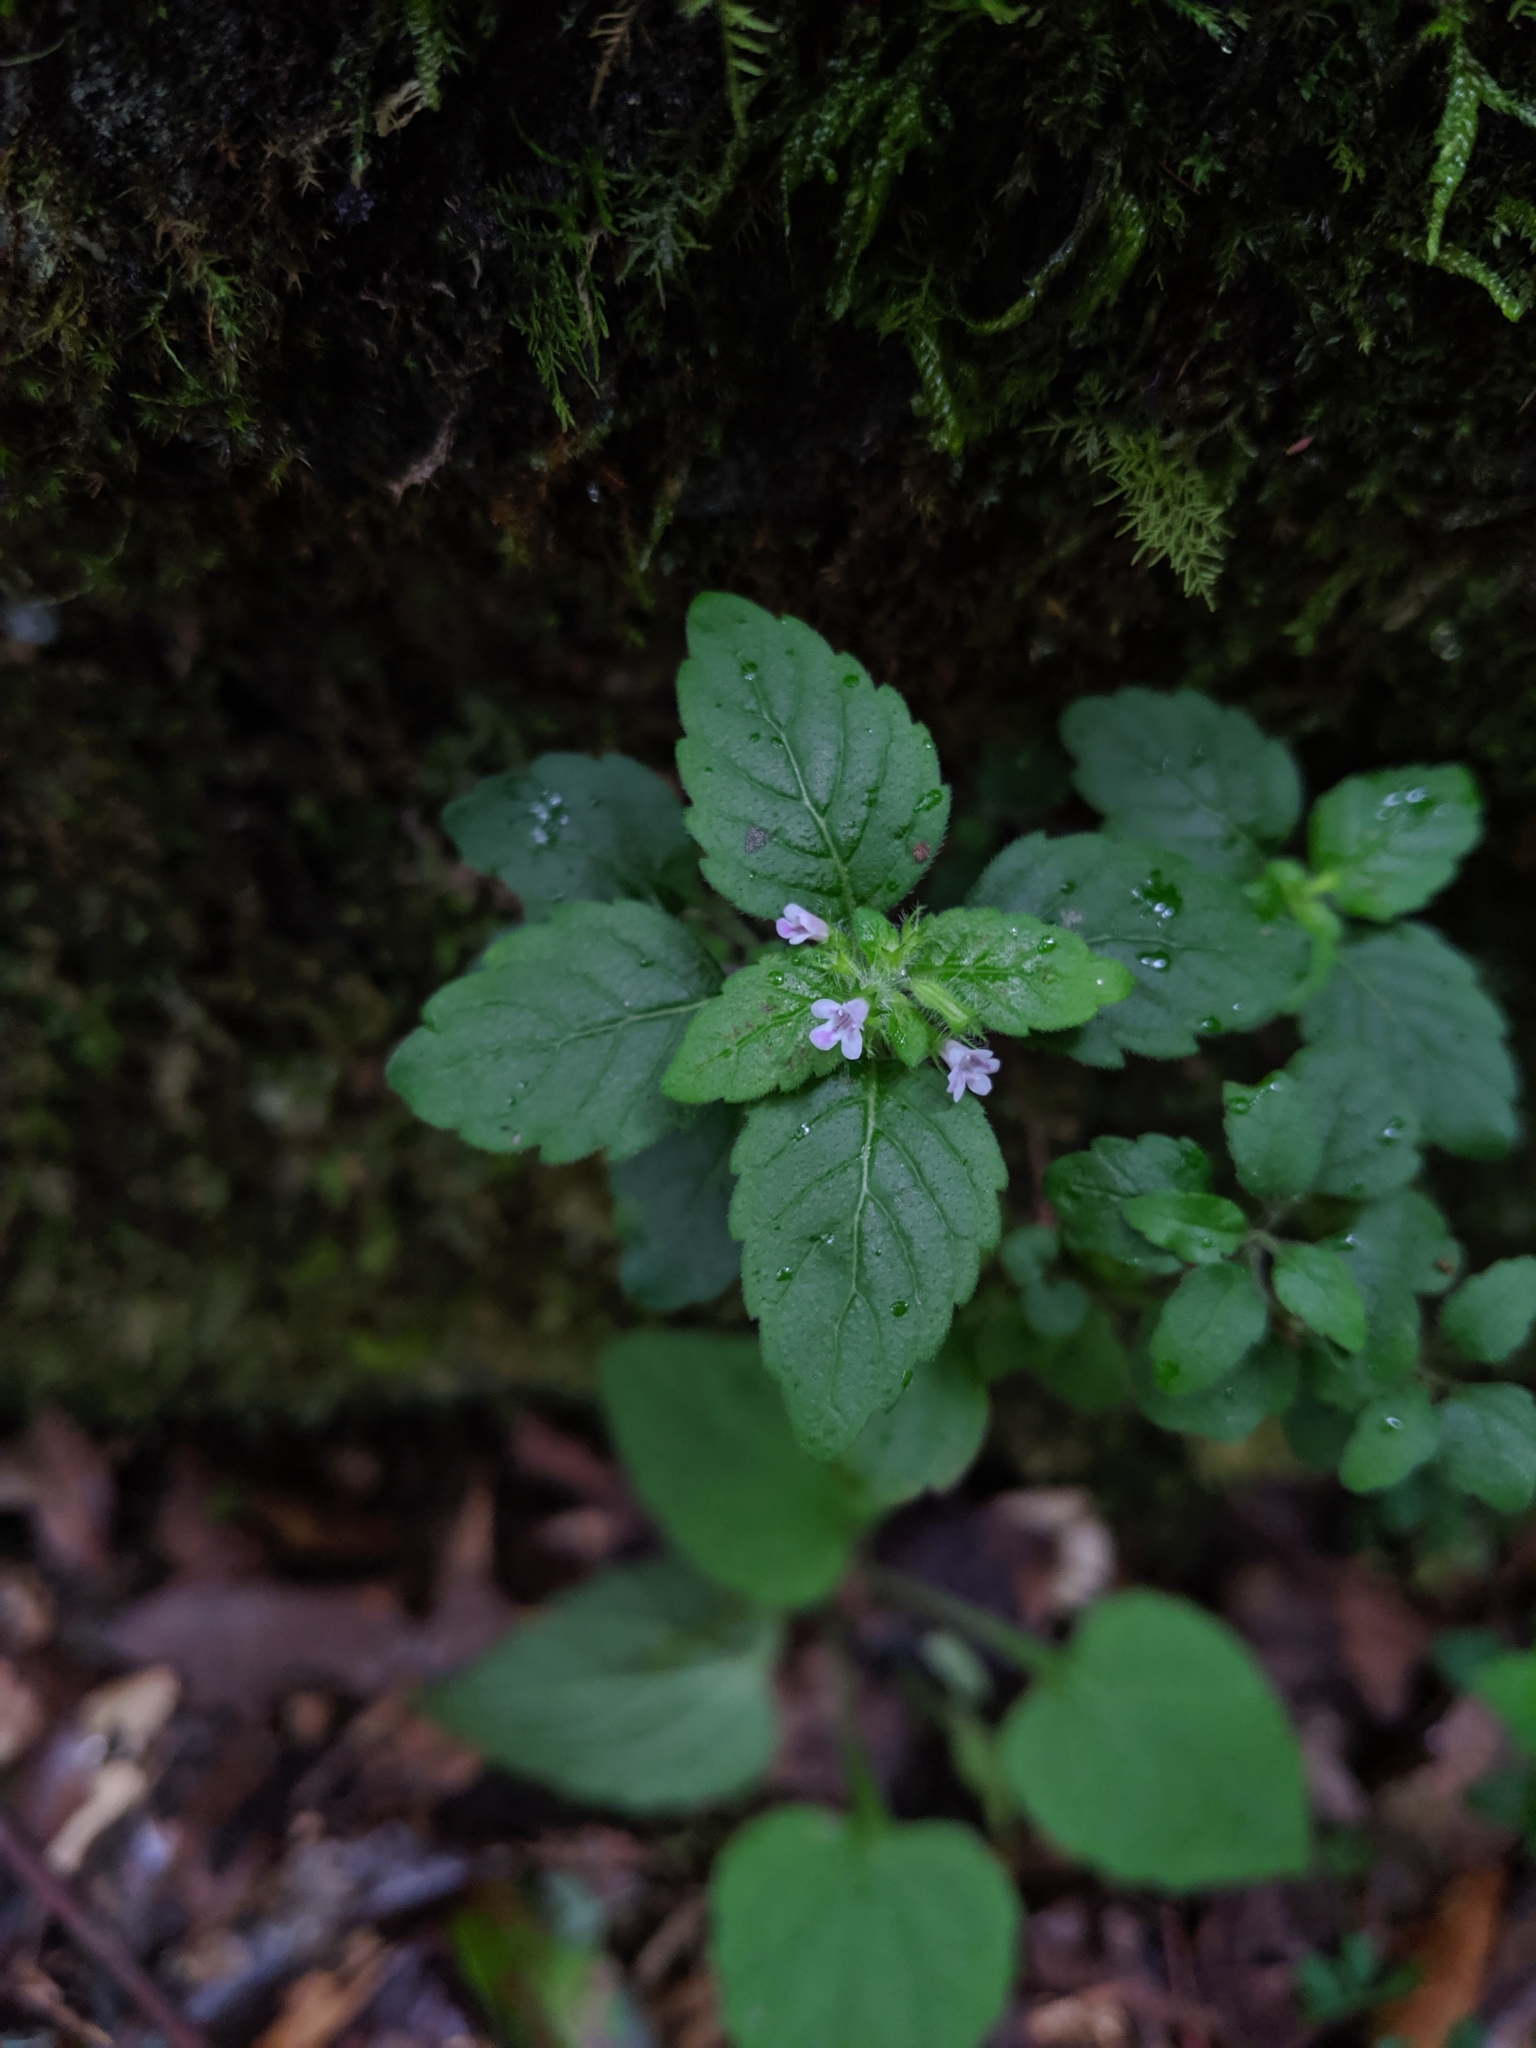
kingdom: Plantae
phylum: Tracheophyta
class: Magnoliopsida
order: Lamiales
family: Lamiaceae
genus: Clinopodium
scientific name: Clinopodium chinense
